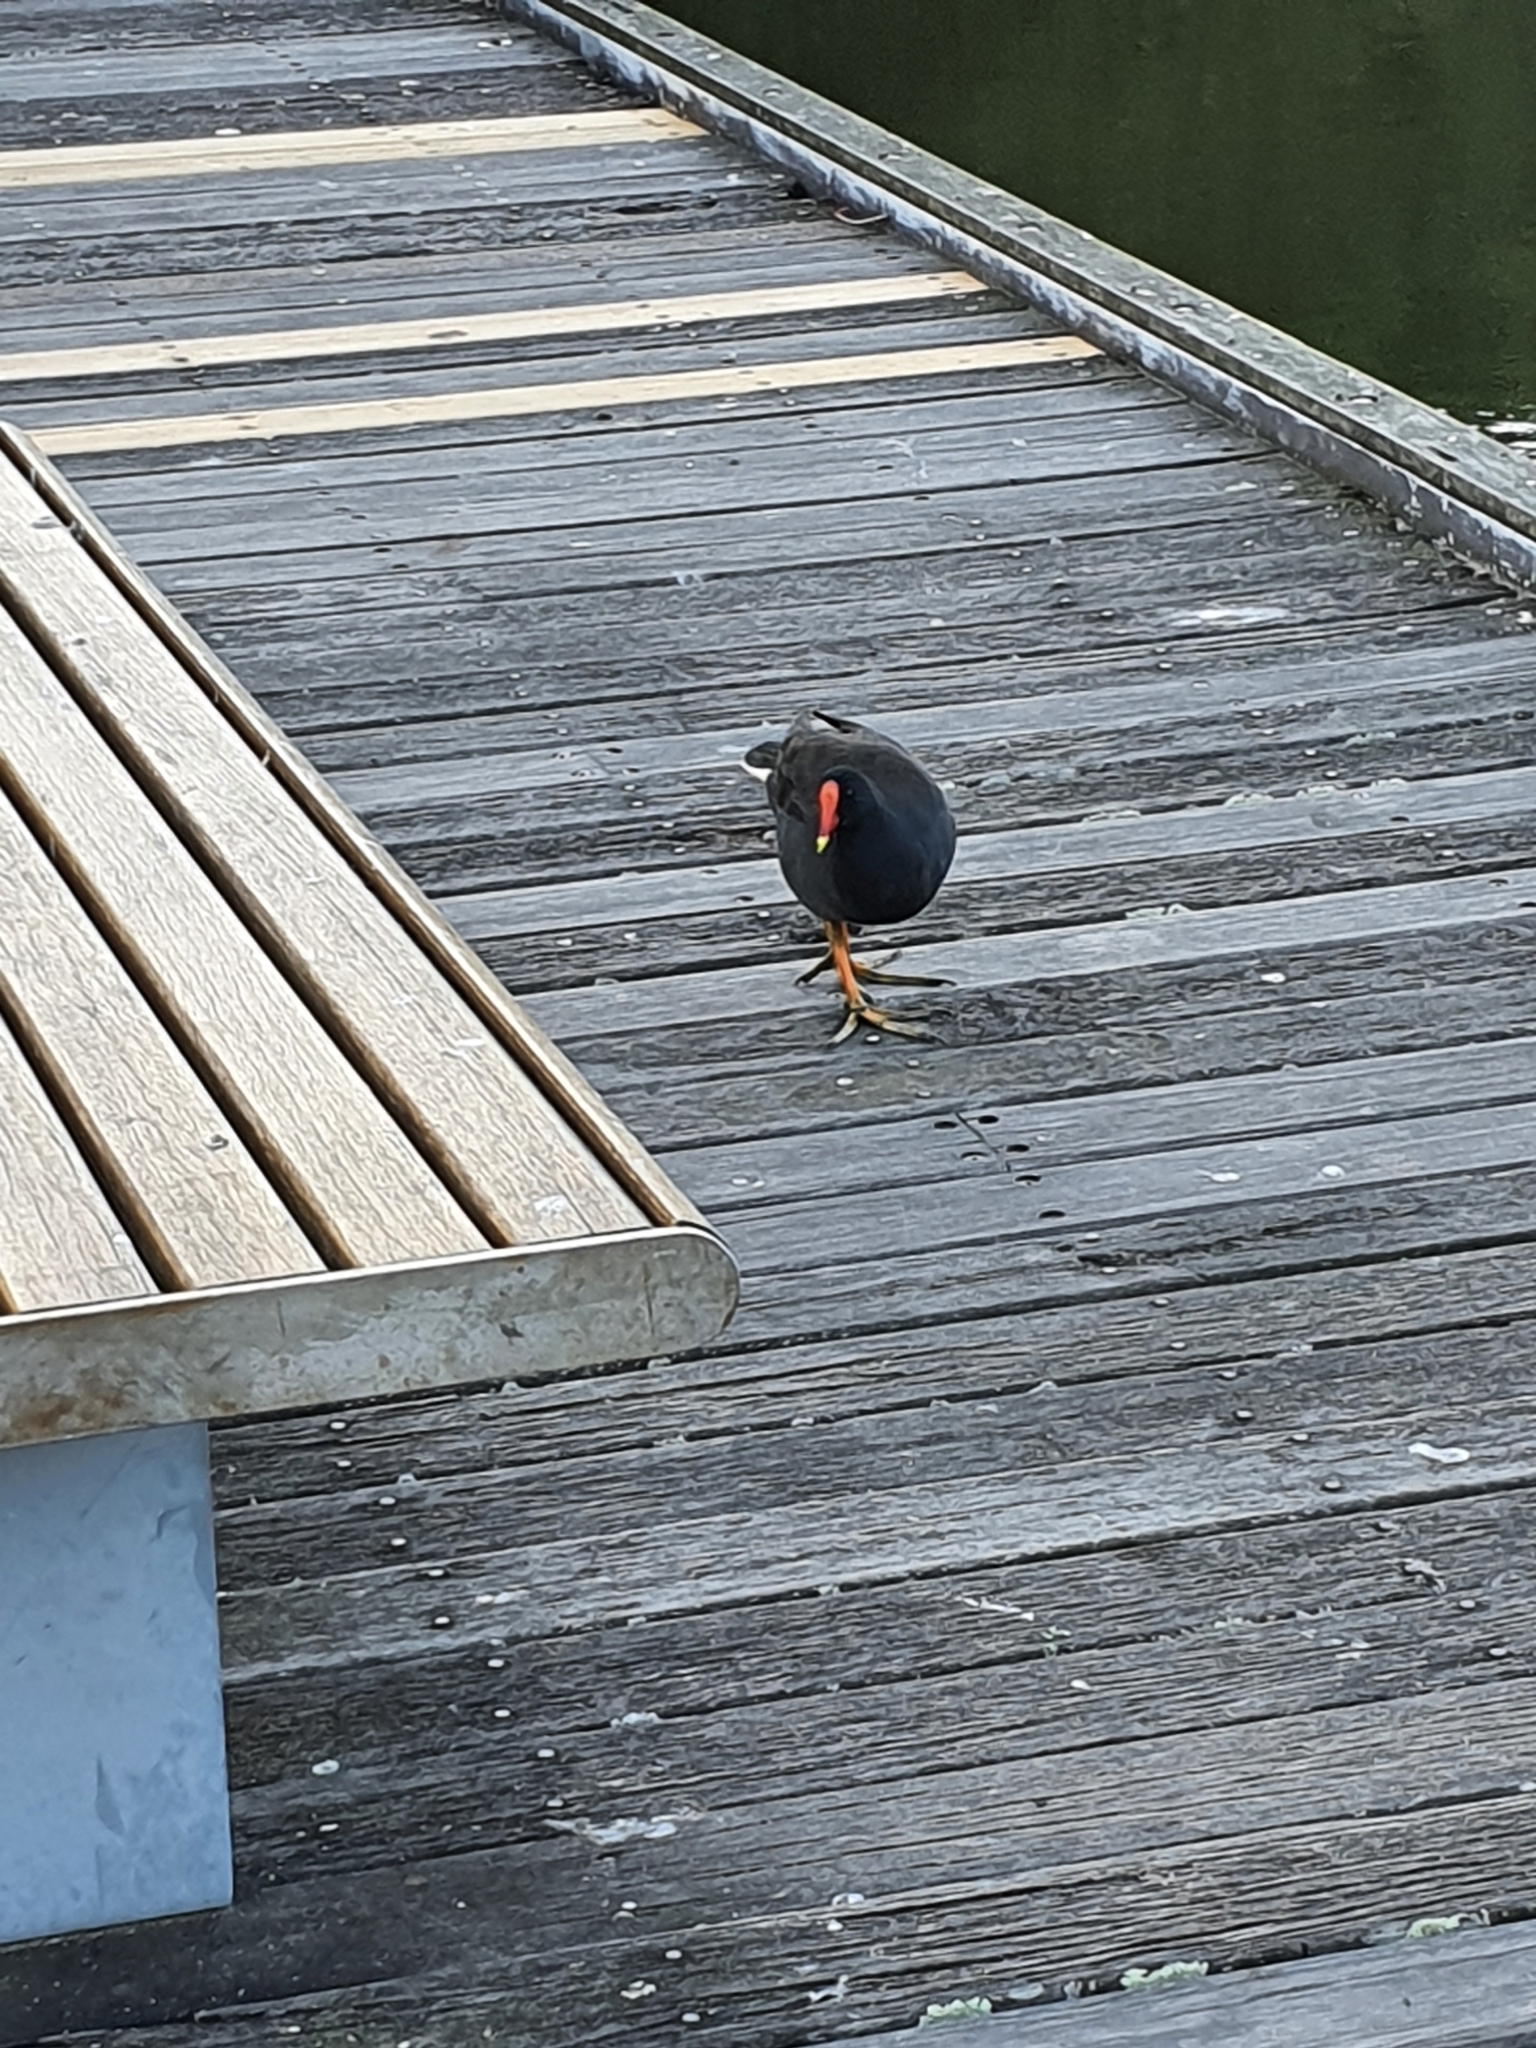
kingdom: Animalia
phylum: Chordata
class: Aves
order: Gruiformes
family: Rallidae
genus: Gallinula
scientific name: Gallinula tenebrosa
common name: Dusky moorhen
